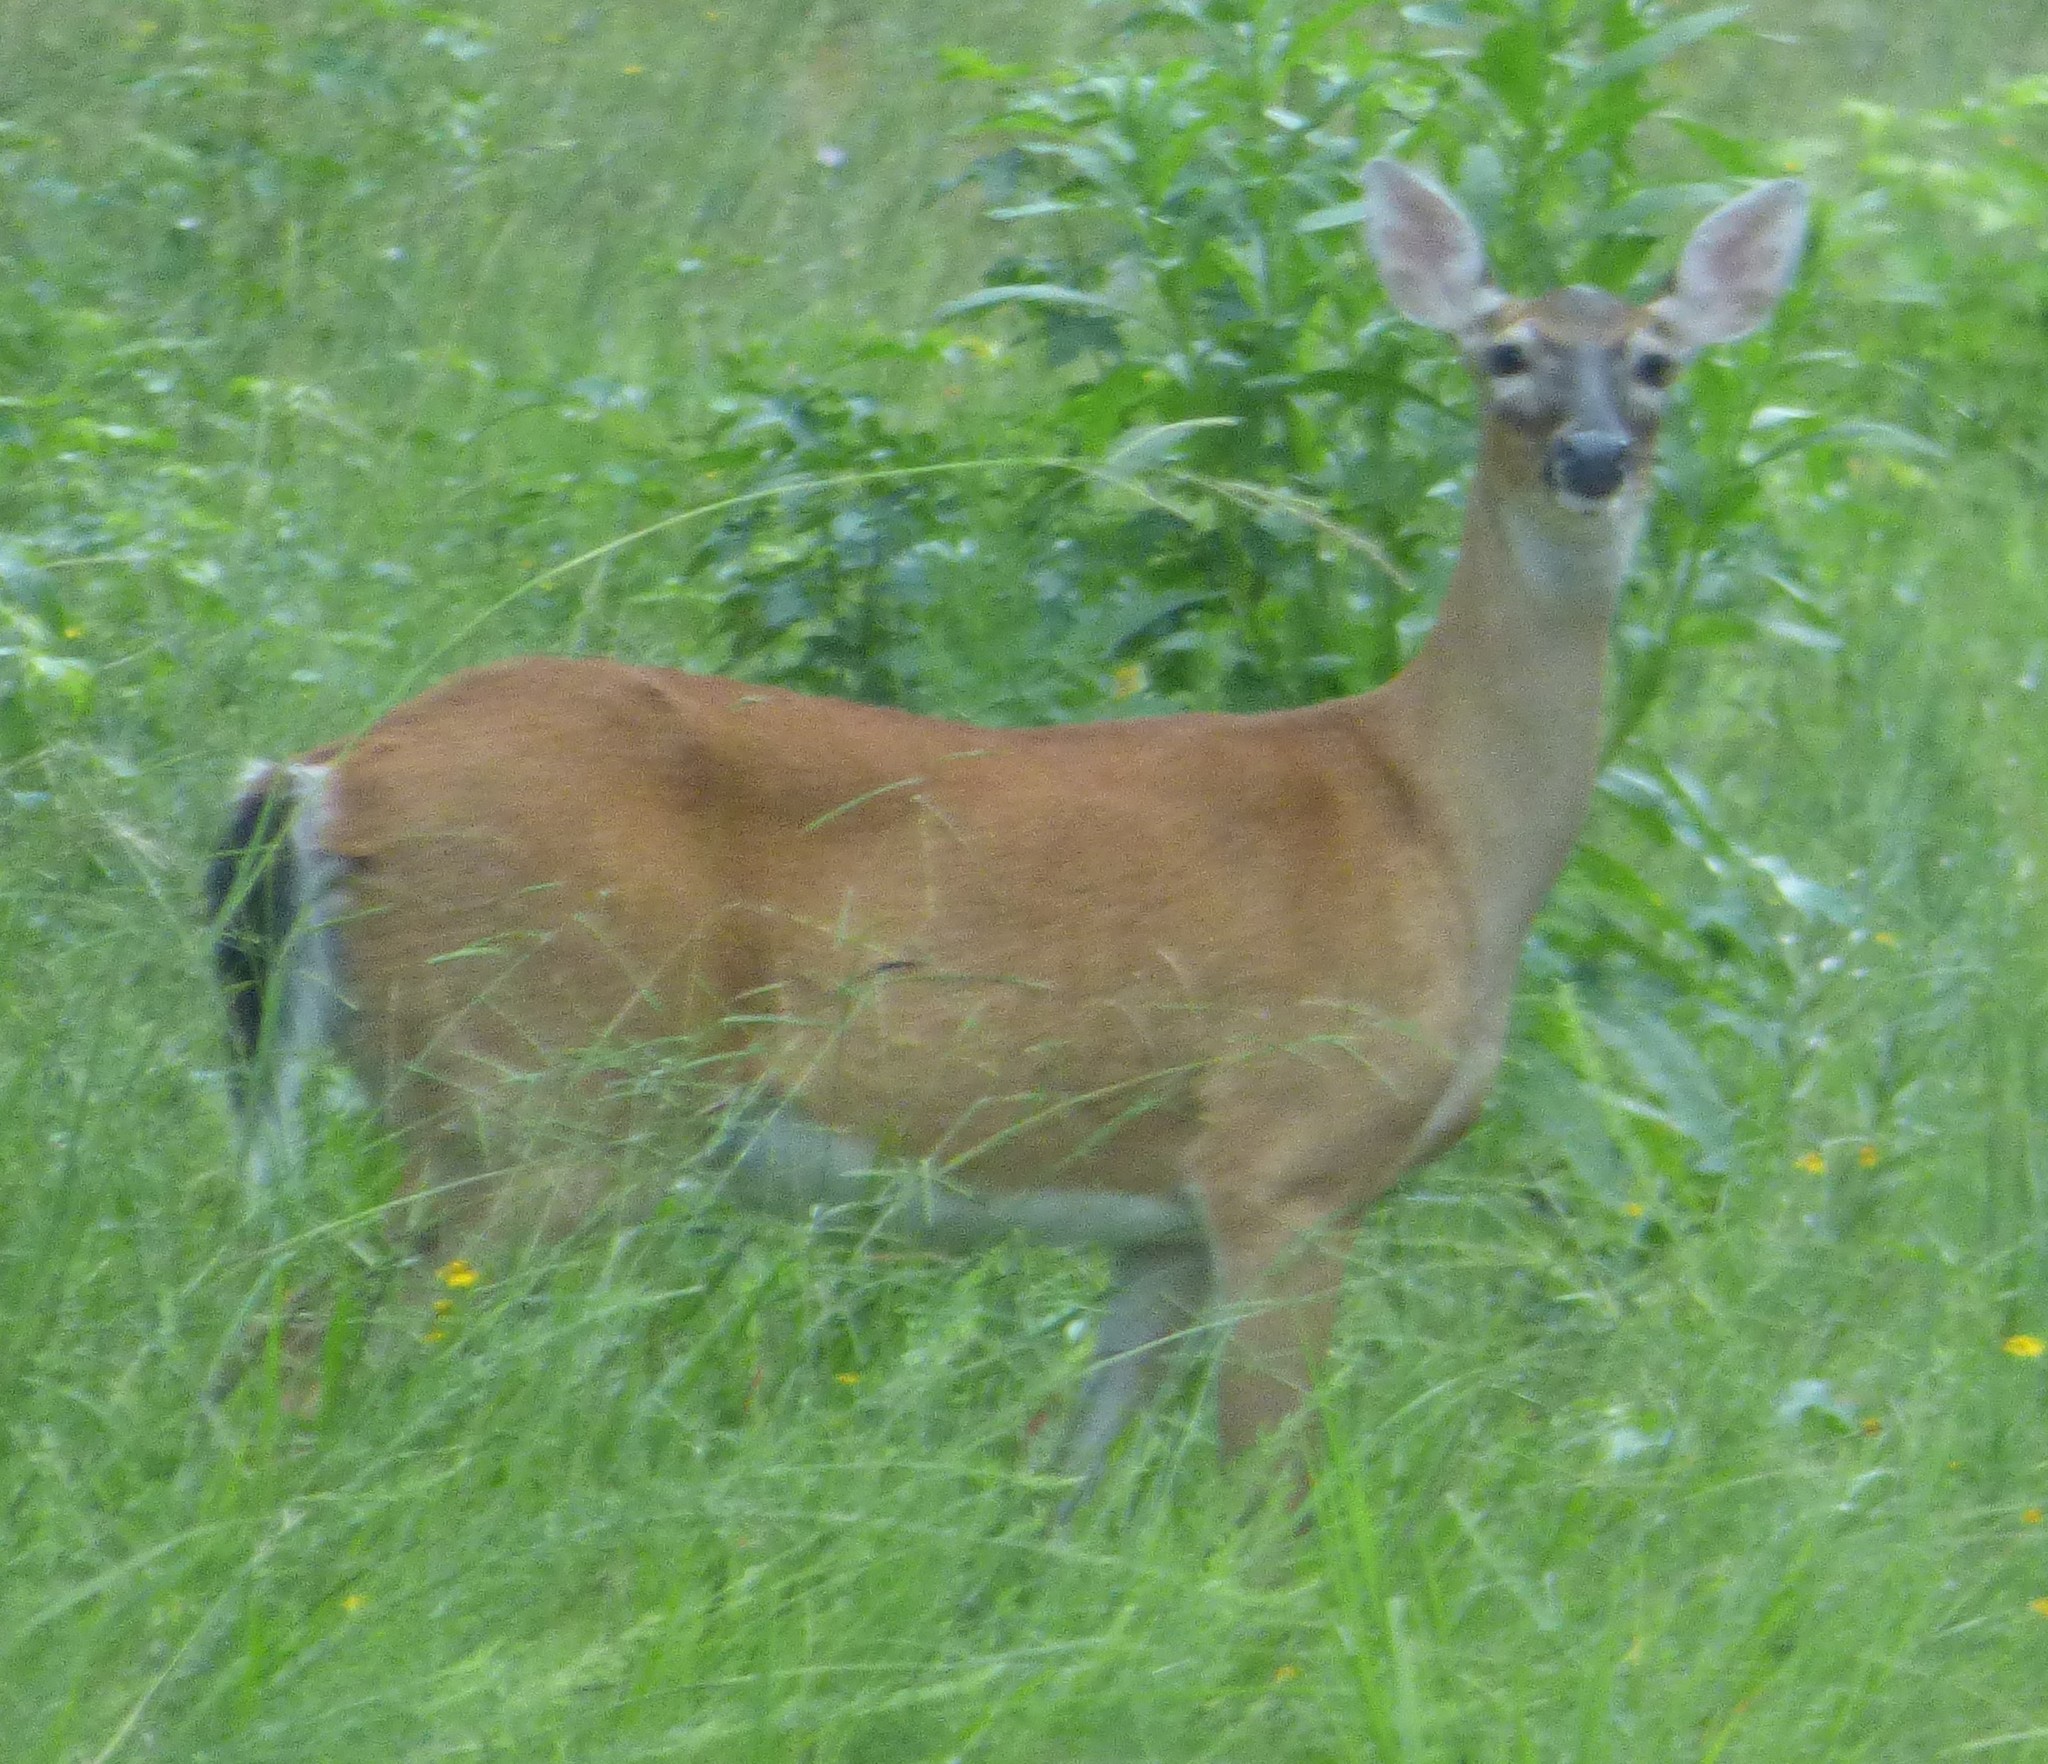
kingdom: Animalia
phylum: Chordata
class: Mammalia
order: Artiodactyla
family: Cervidae
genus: Odocoileus
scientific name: Odocoileus virginianus
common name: White-tailed deer
